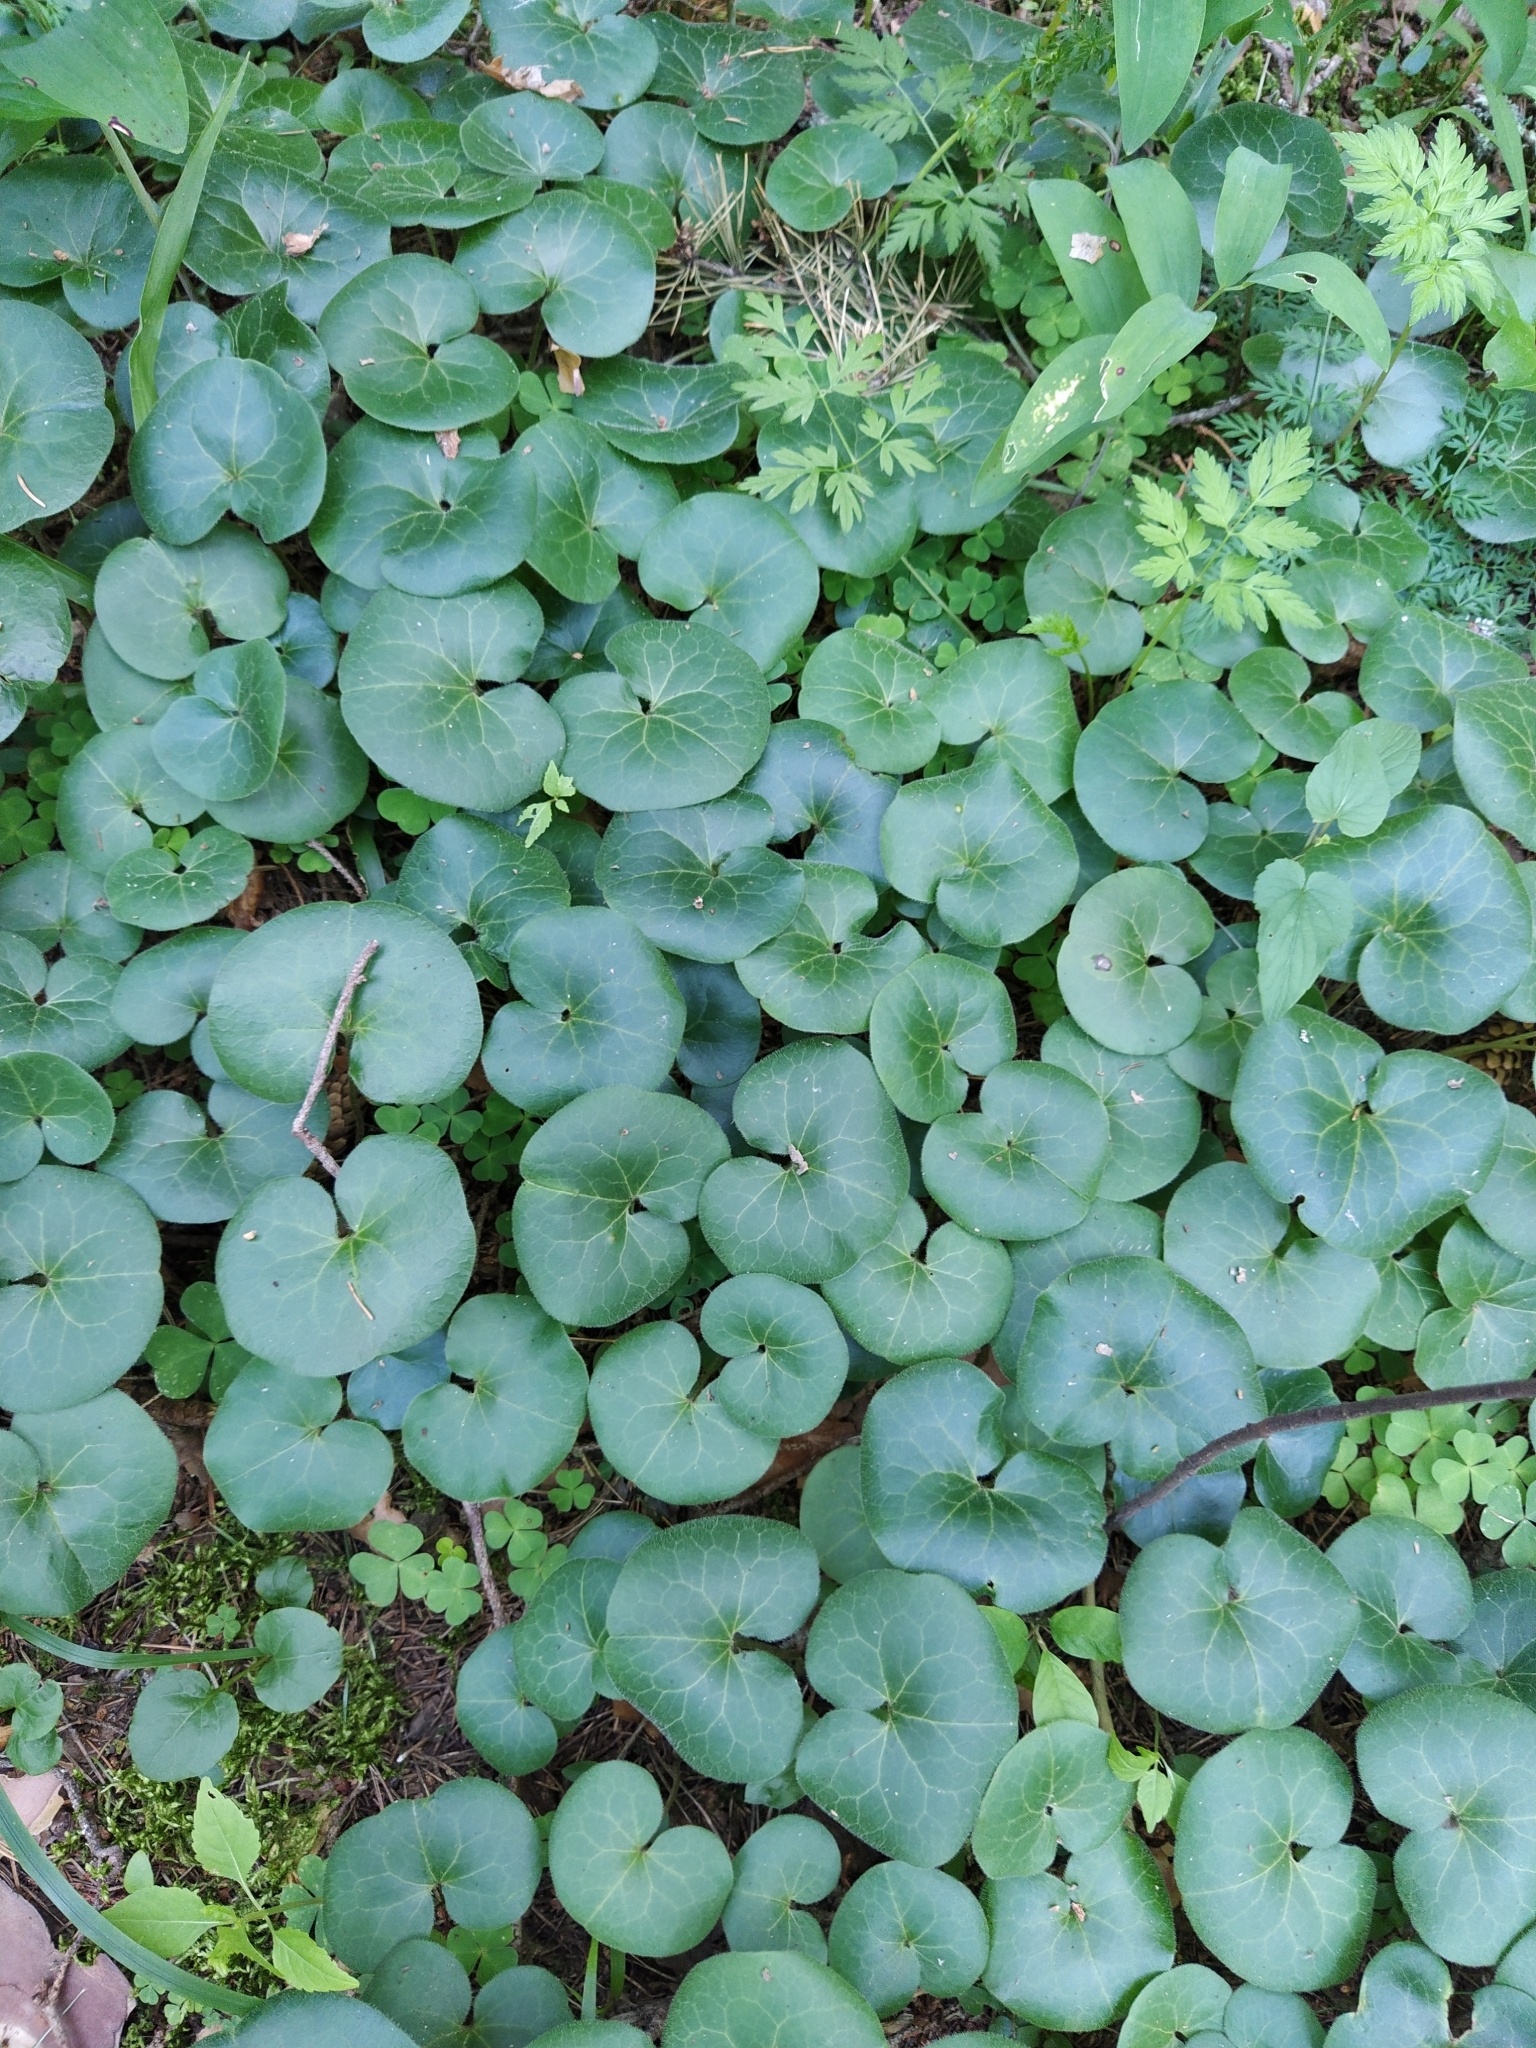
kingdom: Plantae
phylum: Tracheophyta
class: Magnoliopsida
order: Piperales
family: Aristolochiaceae
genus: Asarum
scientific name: Asarum europaeum
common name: Asarabacca
